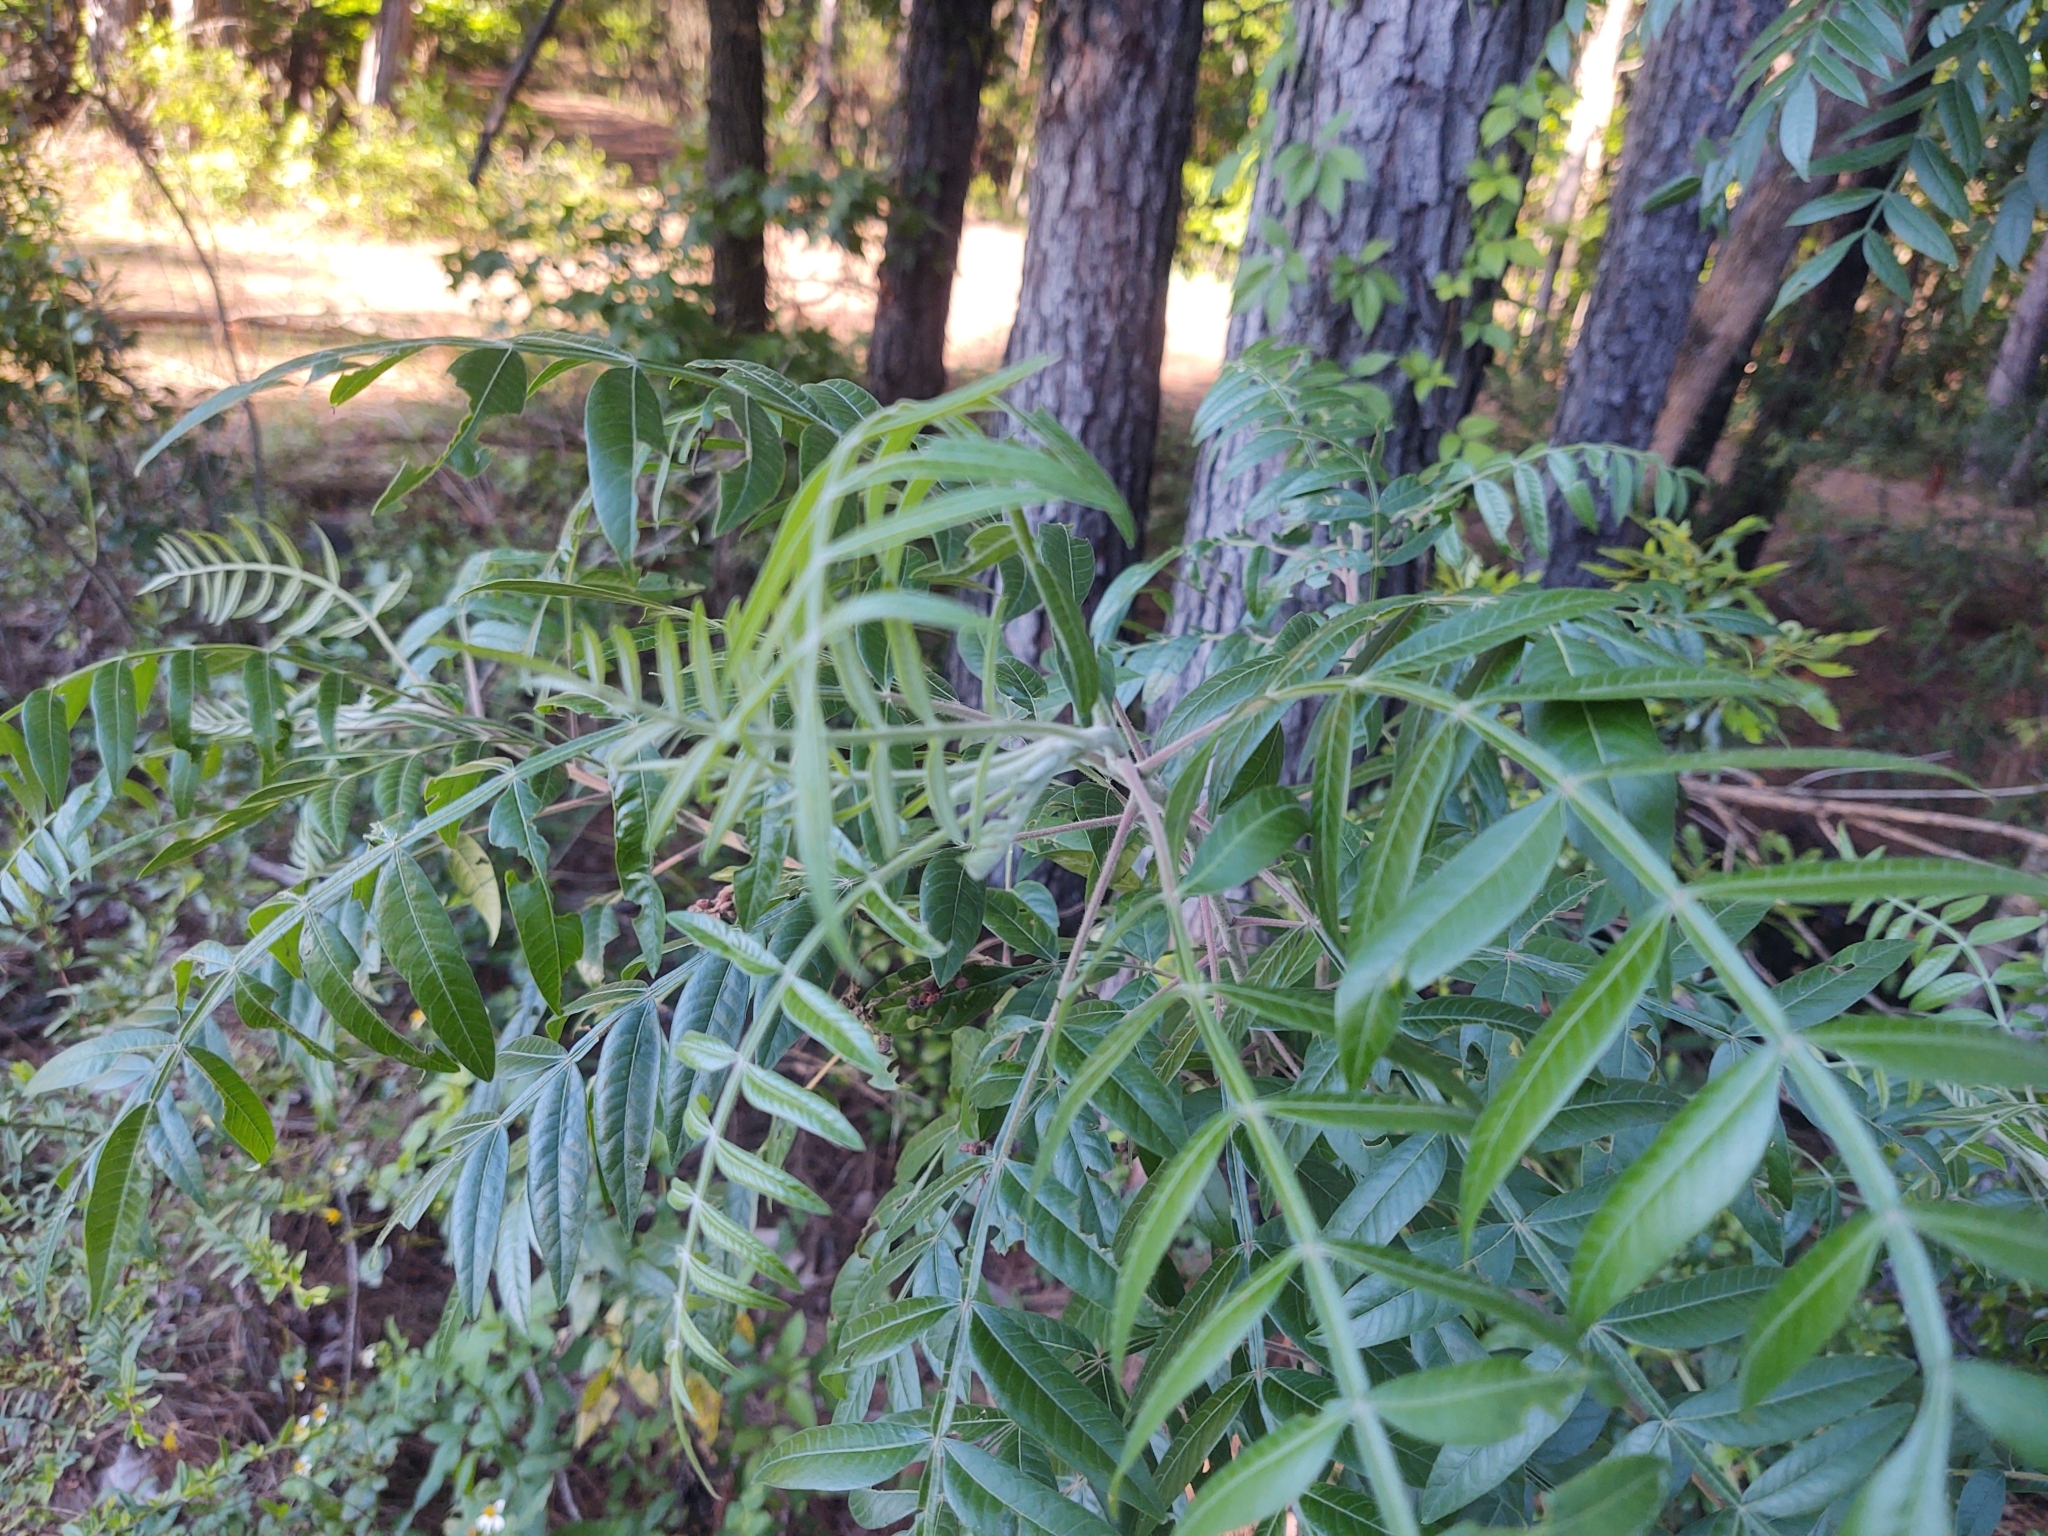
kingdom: Plantae
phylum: Tracheophyta
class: Magnoliopsida
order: Sapindales
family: Anacardiaceae
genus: Rhus
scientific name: Rhus copallina
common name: Shining sumac
